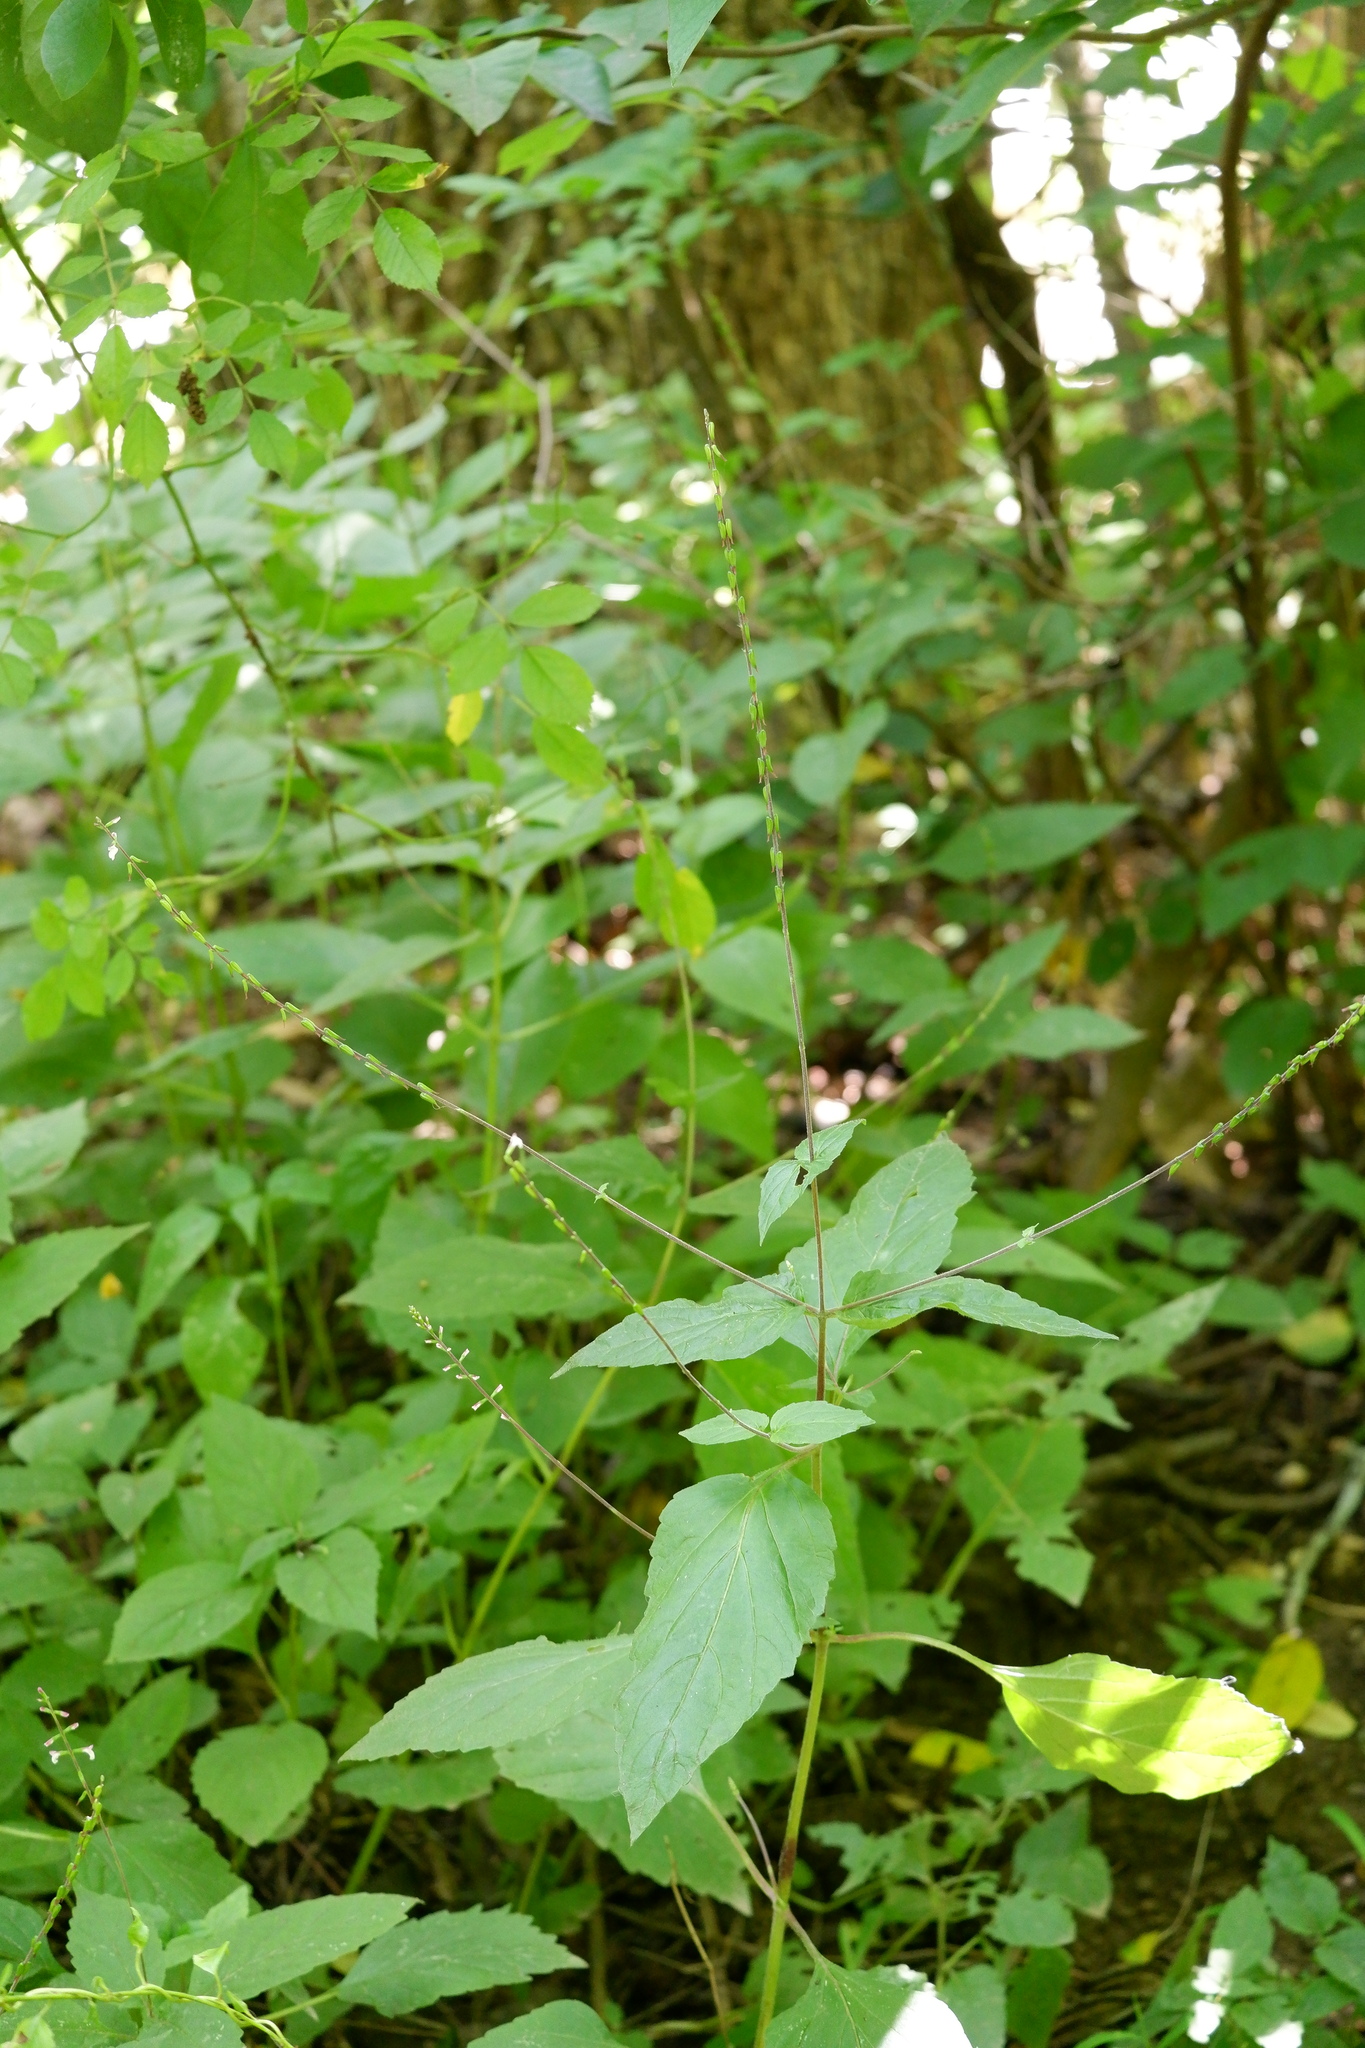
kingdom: Plantae
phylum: Tracheophyta
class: Magnoliopsida
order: Lamiales
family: Phrymaceae
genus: Phryma
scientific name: Phryma leptostachya
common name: American lopseed
